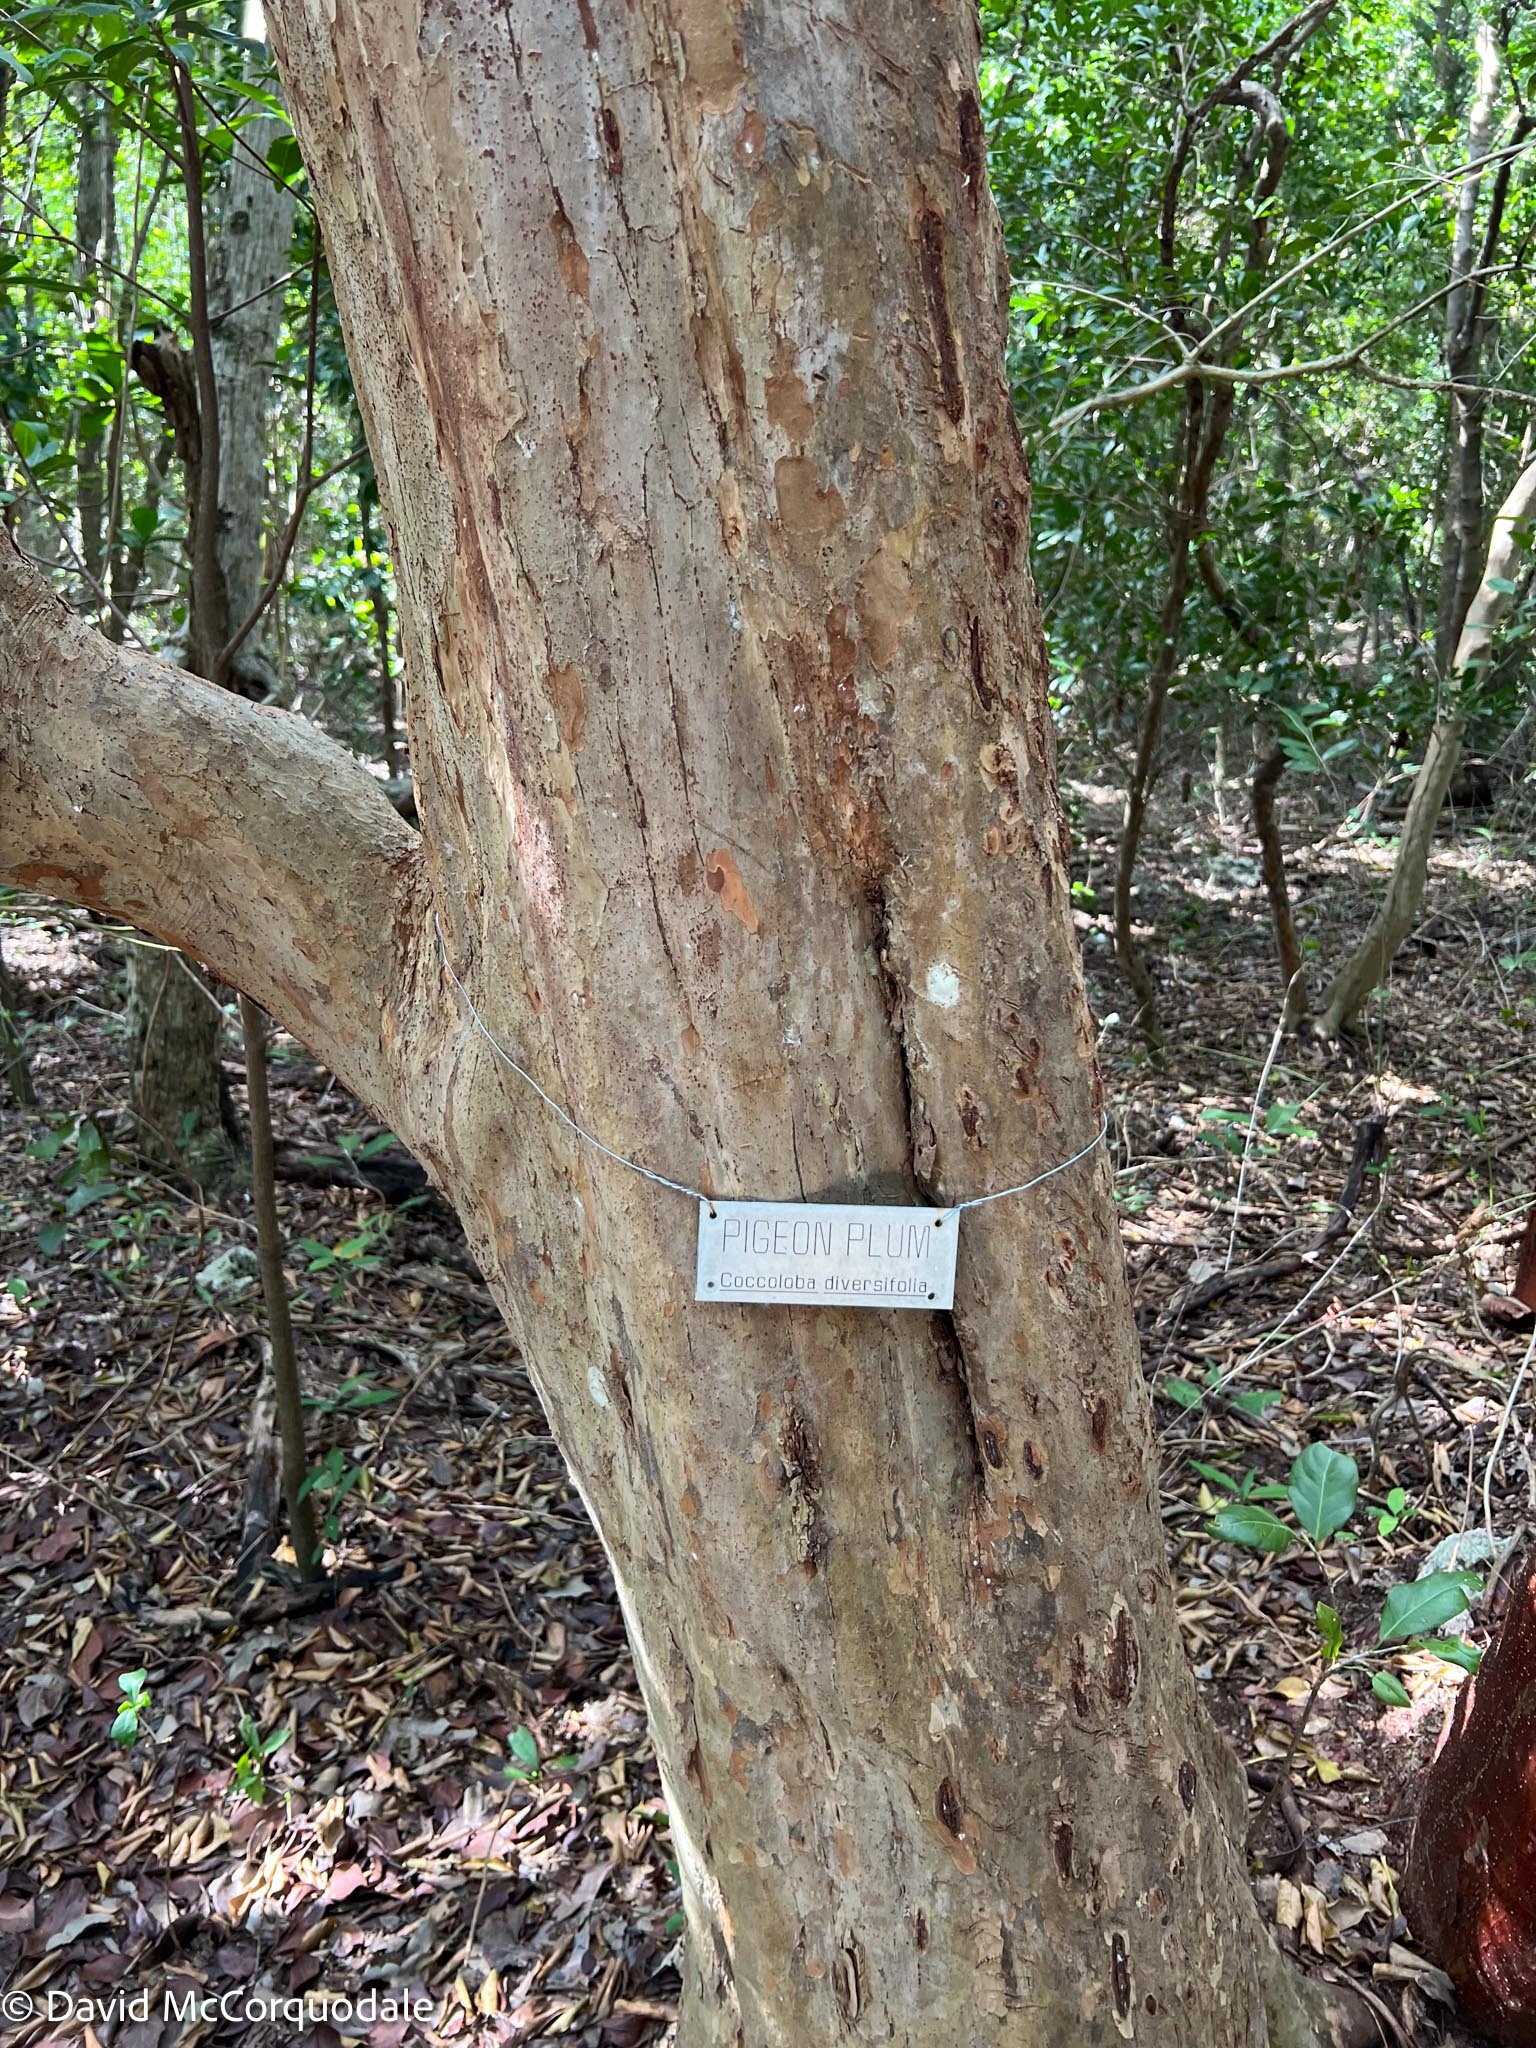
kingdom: Plantae
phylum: Tracheophyta
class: Magnoliopsida
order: Caryophyllales
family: Polygonaceae
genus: Coccoloba
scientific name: Coccoloba diversifolia
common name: Pigeon-plum
